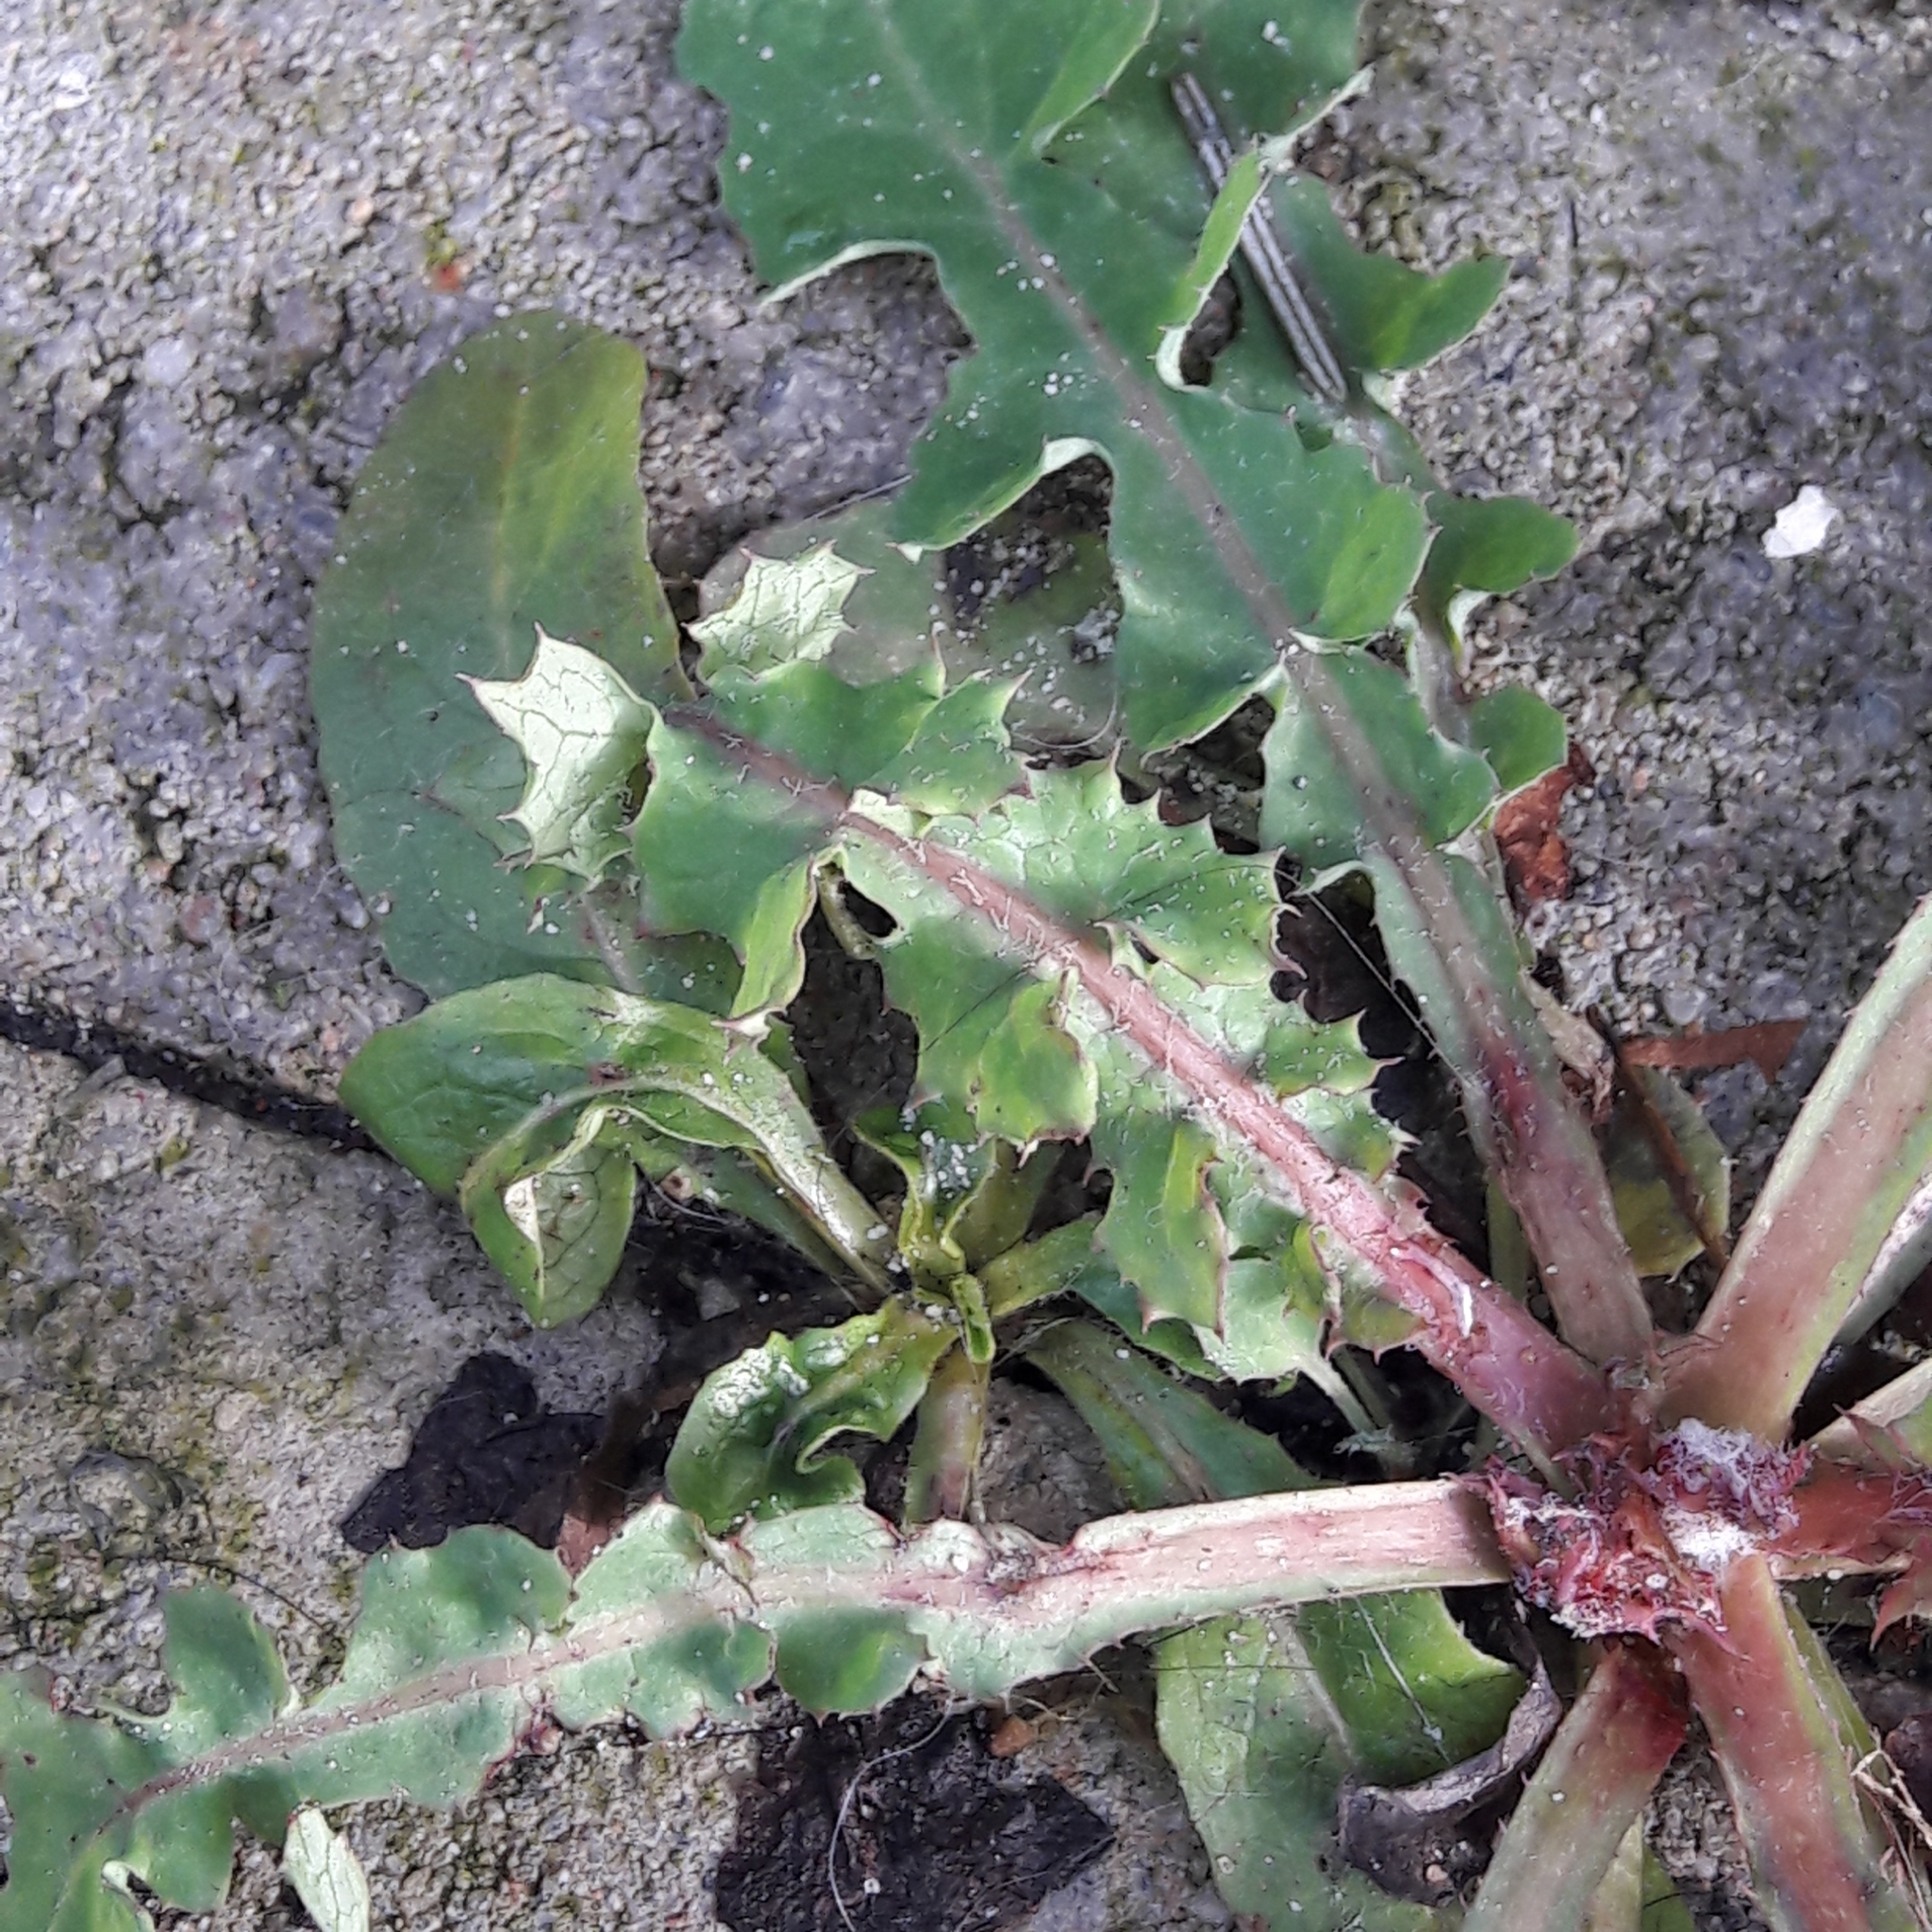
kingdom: Plantae
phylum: Tracheophyta
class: Magnoliopsida
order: Asterales
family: Asteraceae
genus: Sonchus
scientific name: Sonchus oleraceus
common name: Common sowthistle
